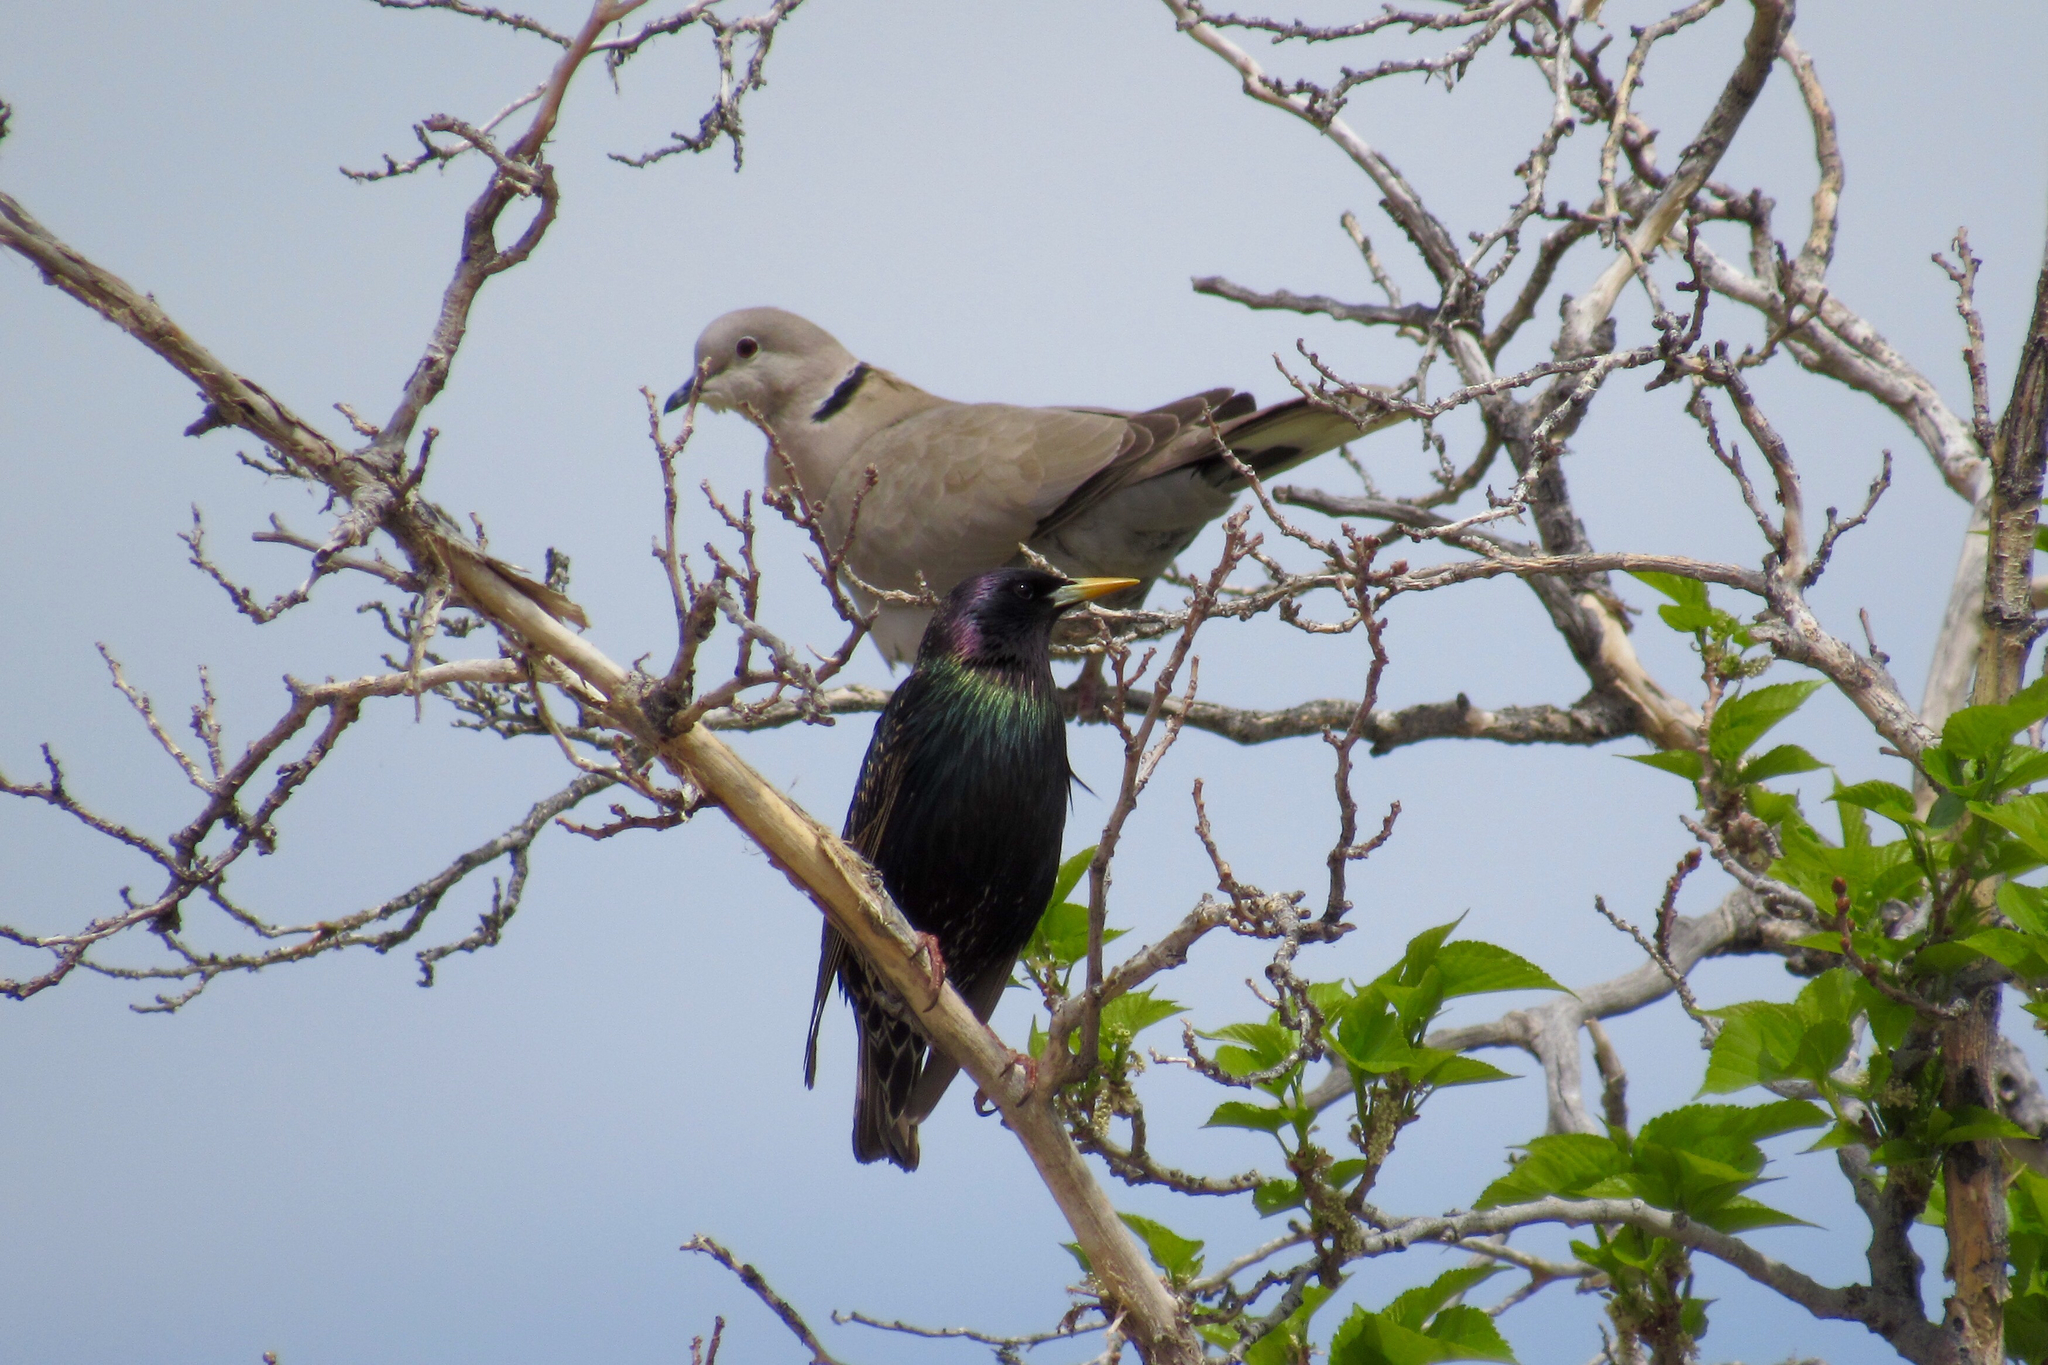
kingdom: Animalia
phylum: Chordata
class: Aves
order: Columbiformes
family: Columbidae
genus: Streptopelia
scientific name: Streptopelia decaocto
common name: Eurasian collared dove
